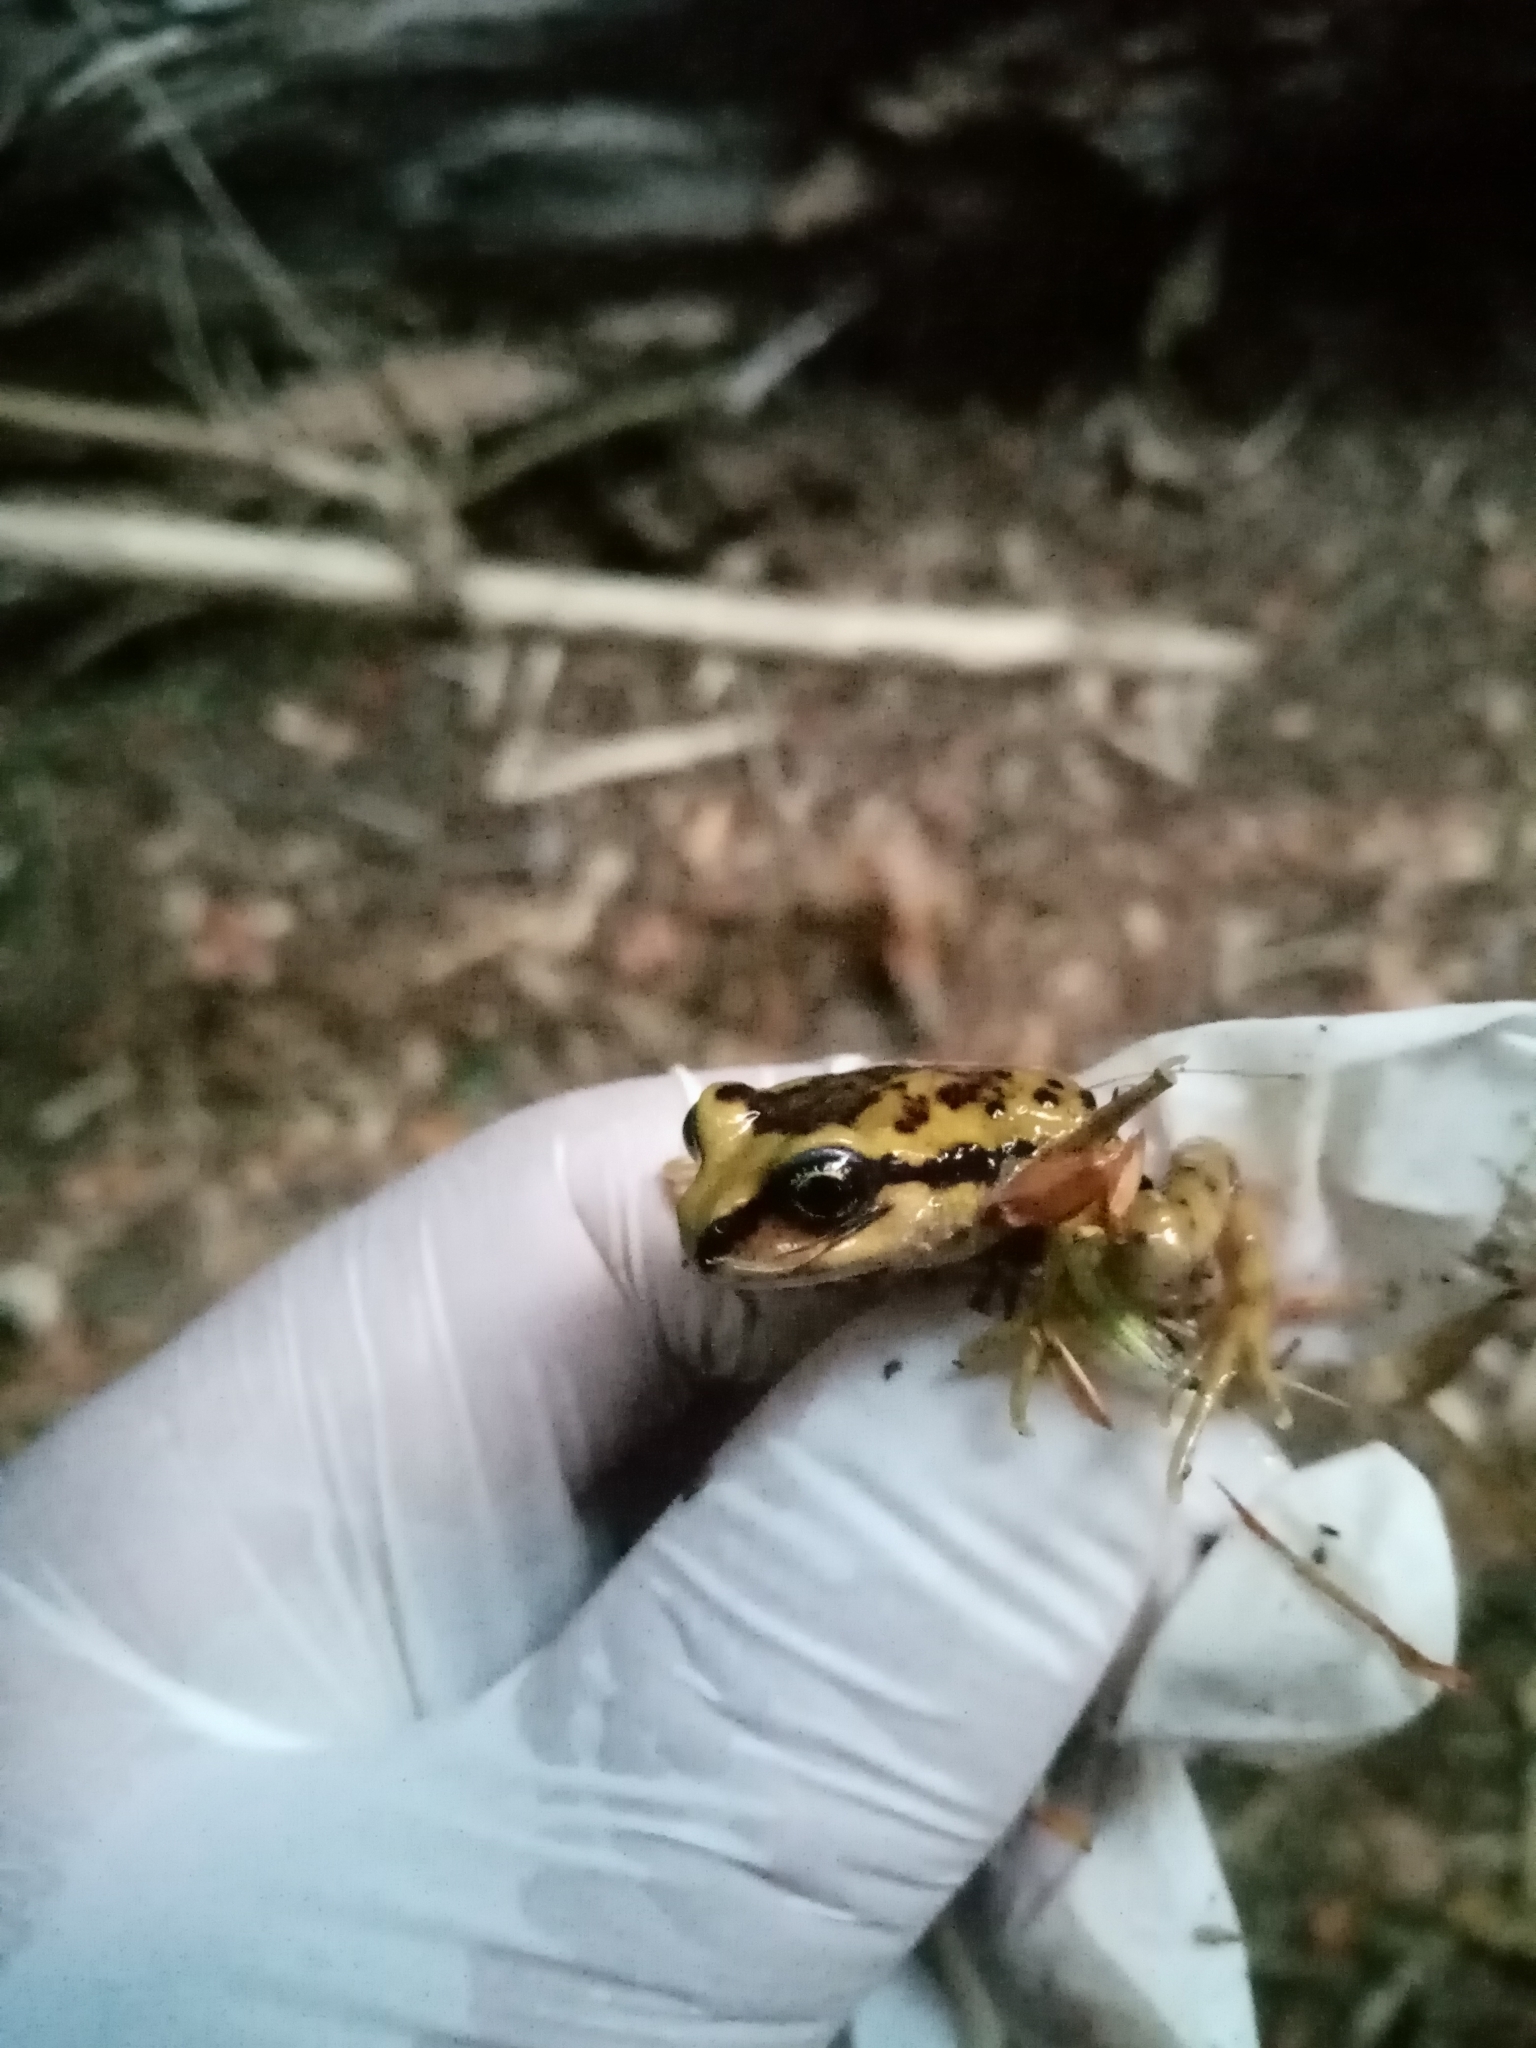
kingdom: Animalia
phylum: Chordata
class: Amphibia
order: Anura
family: Alsodidae
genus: Alsodes
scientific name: Alsodes valdiviensis
